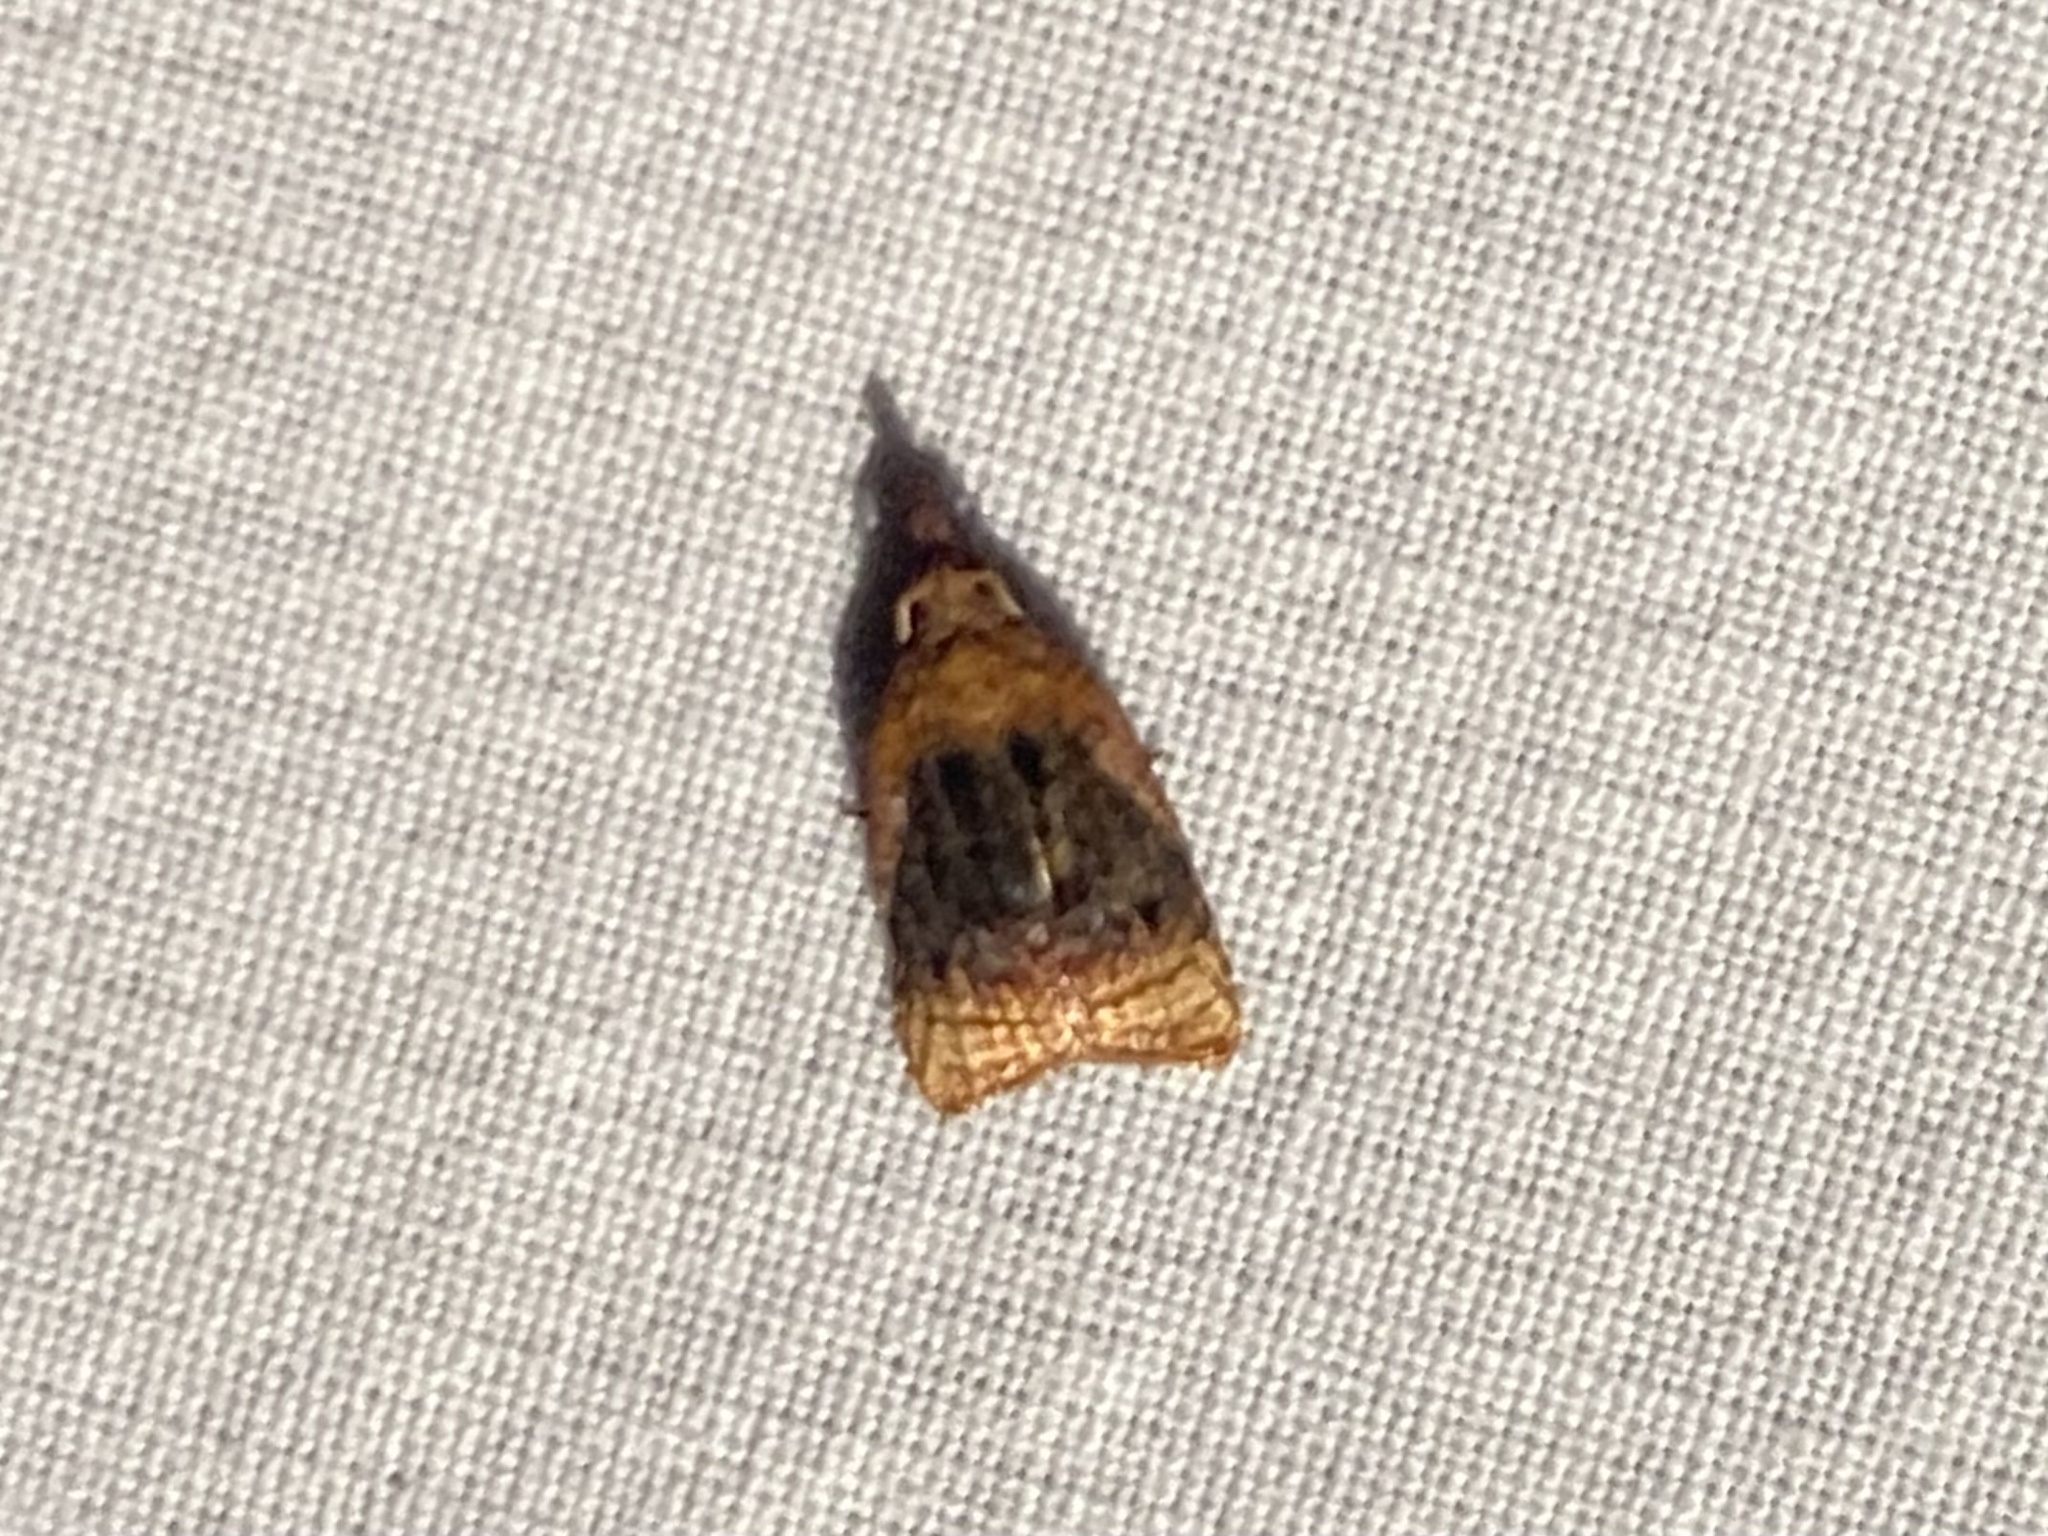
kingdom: Animalia
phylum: Arthropoda
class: Insecta
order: Lepidoptera
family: Tortricidae
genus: Platynota
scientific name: Platynota flavedana
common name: Black-shaded platynota moth
